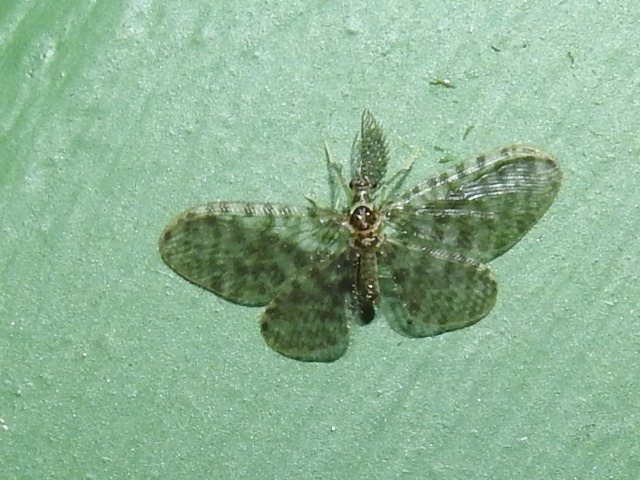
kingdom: Animalia
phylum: Arthropoda
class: Insecta
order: Neuroptera
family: Dilaridae
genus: Nallachius
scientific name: Nallachius parkeri
